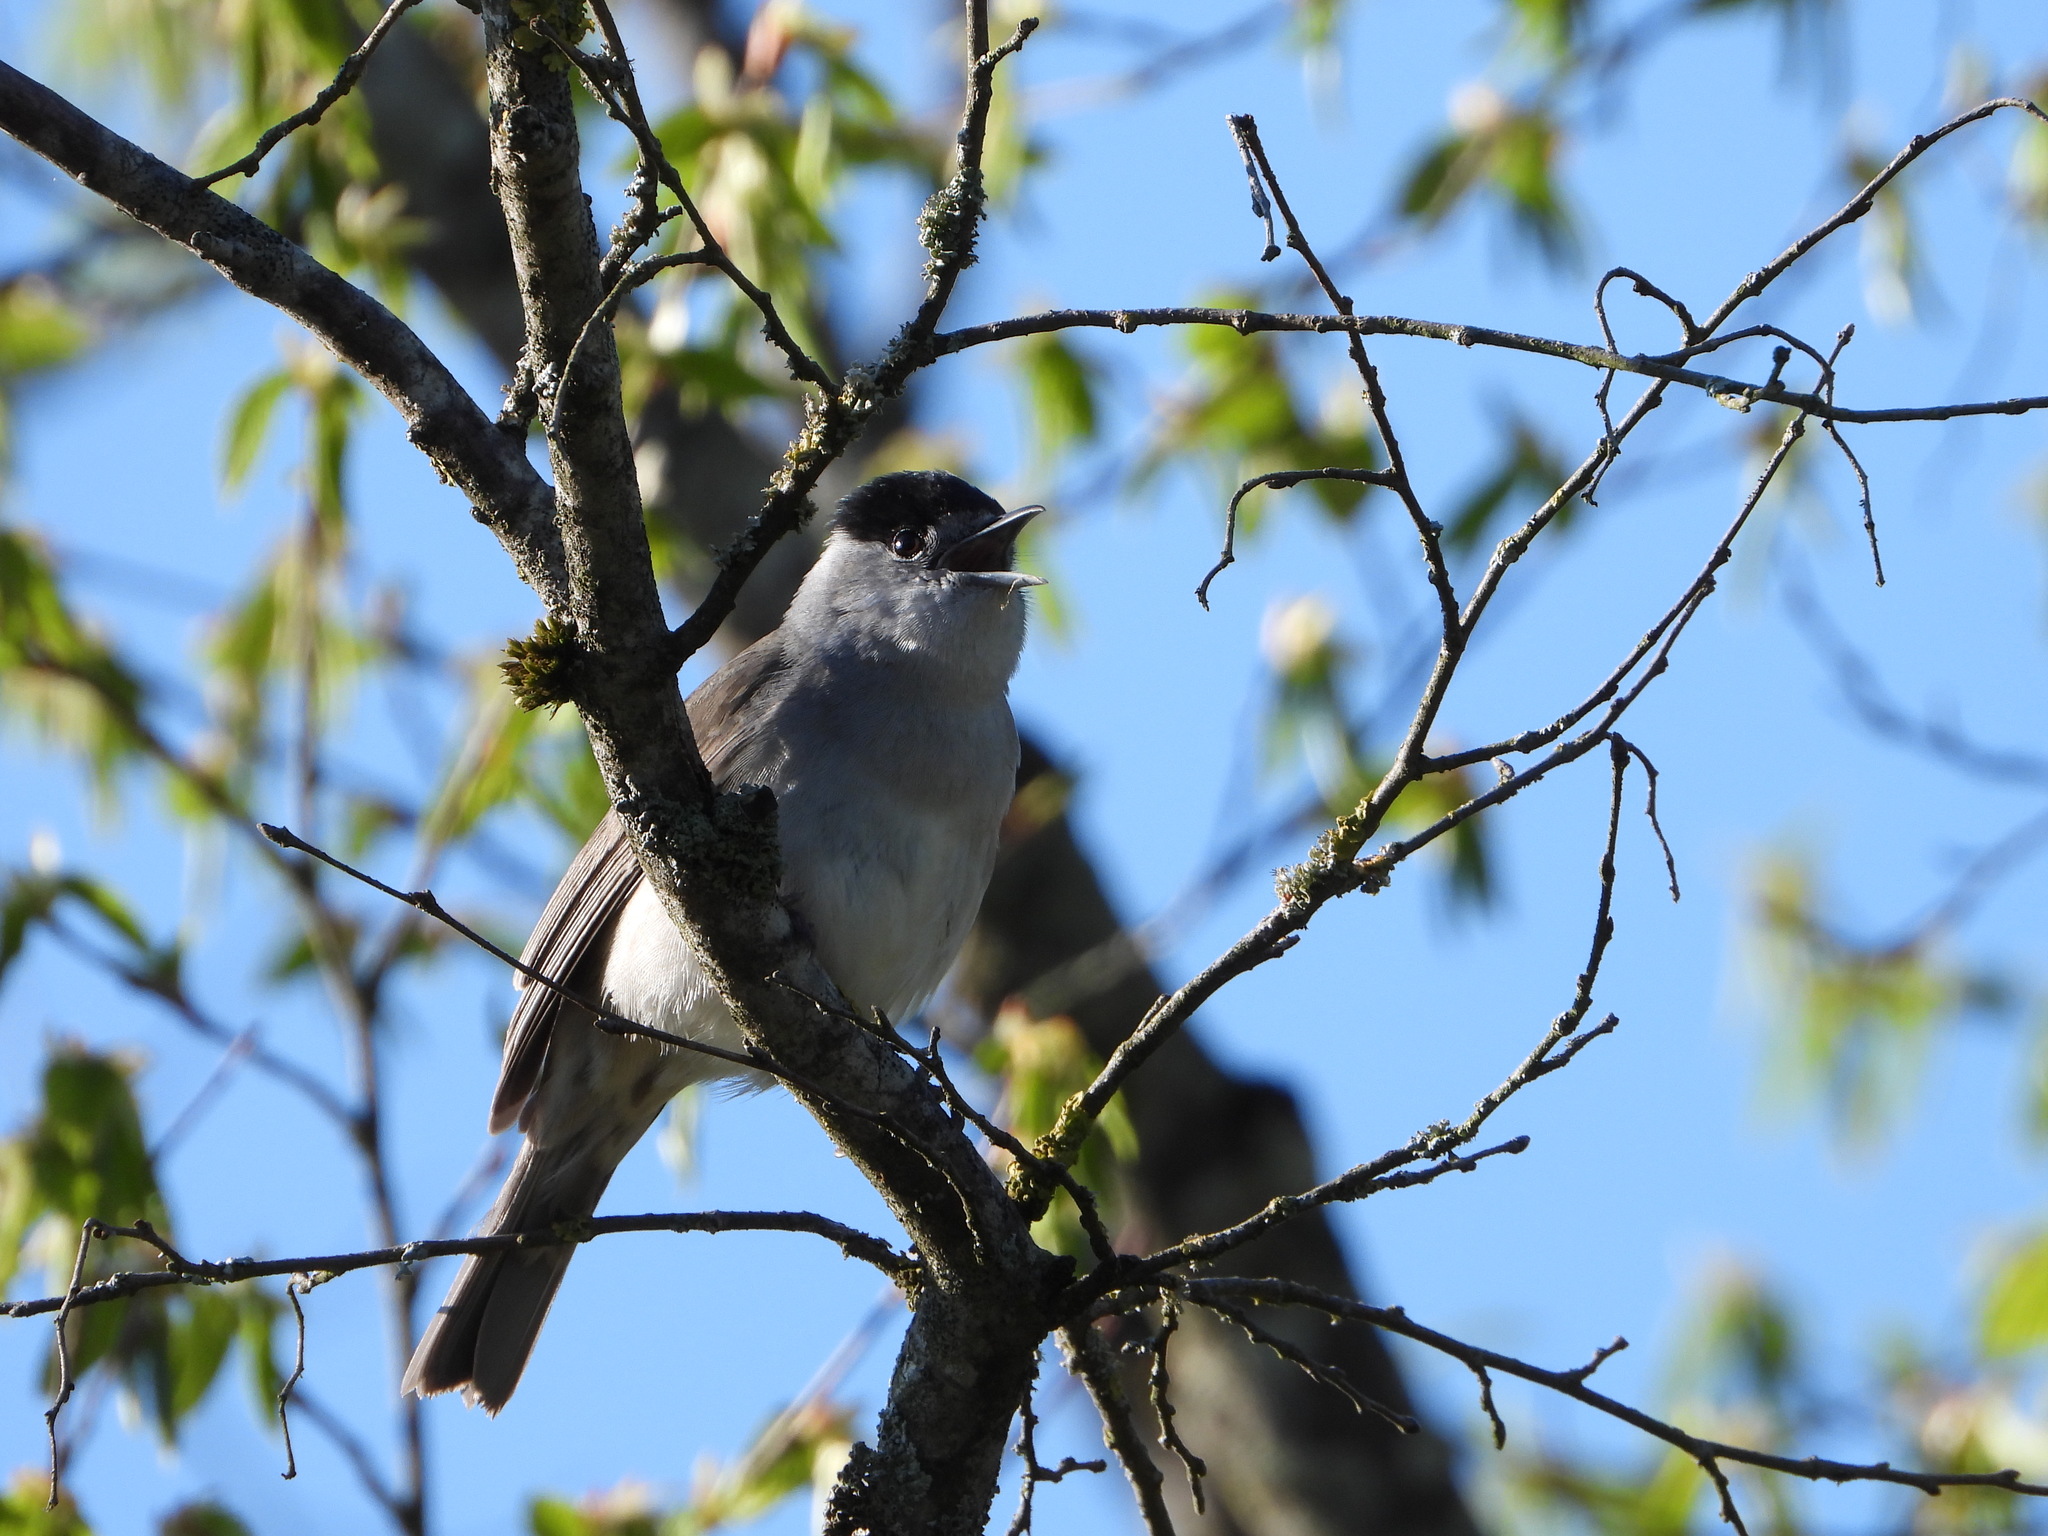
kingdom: Animalia
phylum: Chordata
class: Aves
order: Passeriformes
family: Sylviidae
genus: Sylvia
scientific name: Sylvia atricapilla
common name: Eurasian blackcap
